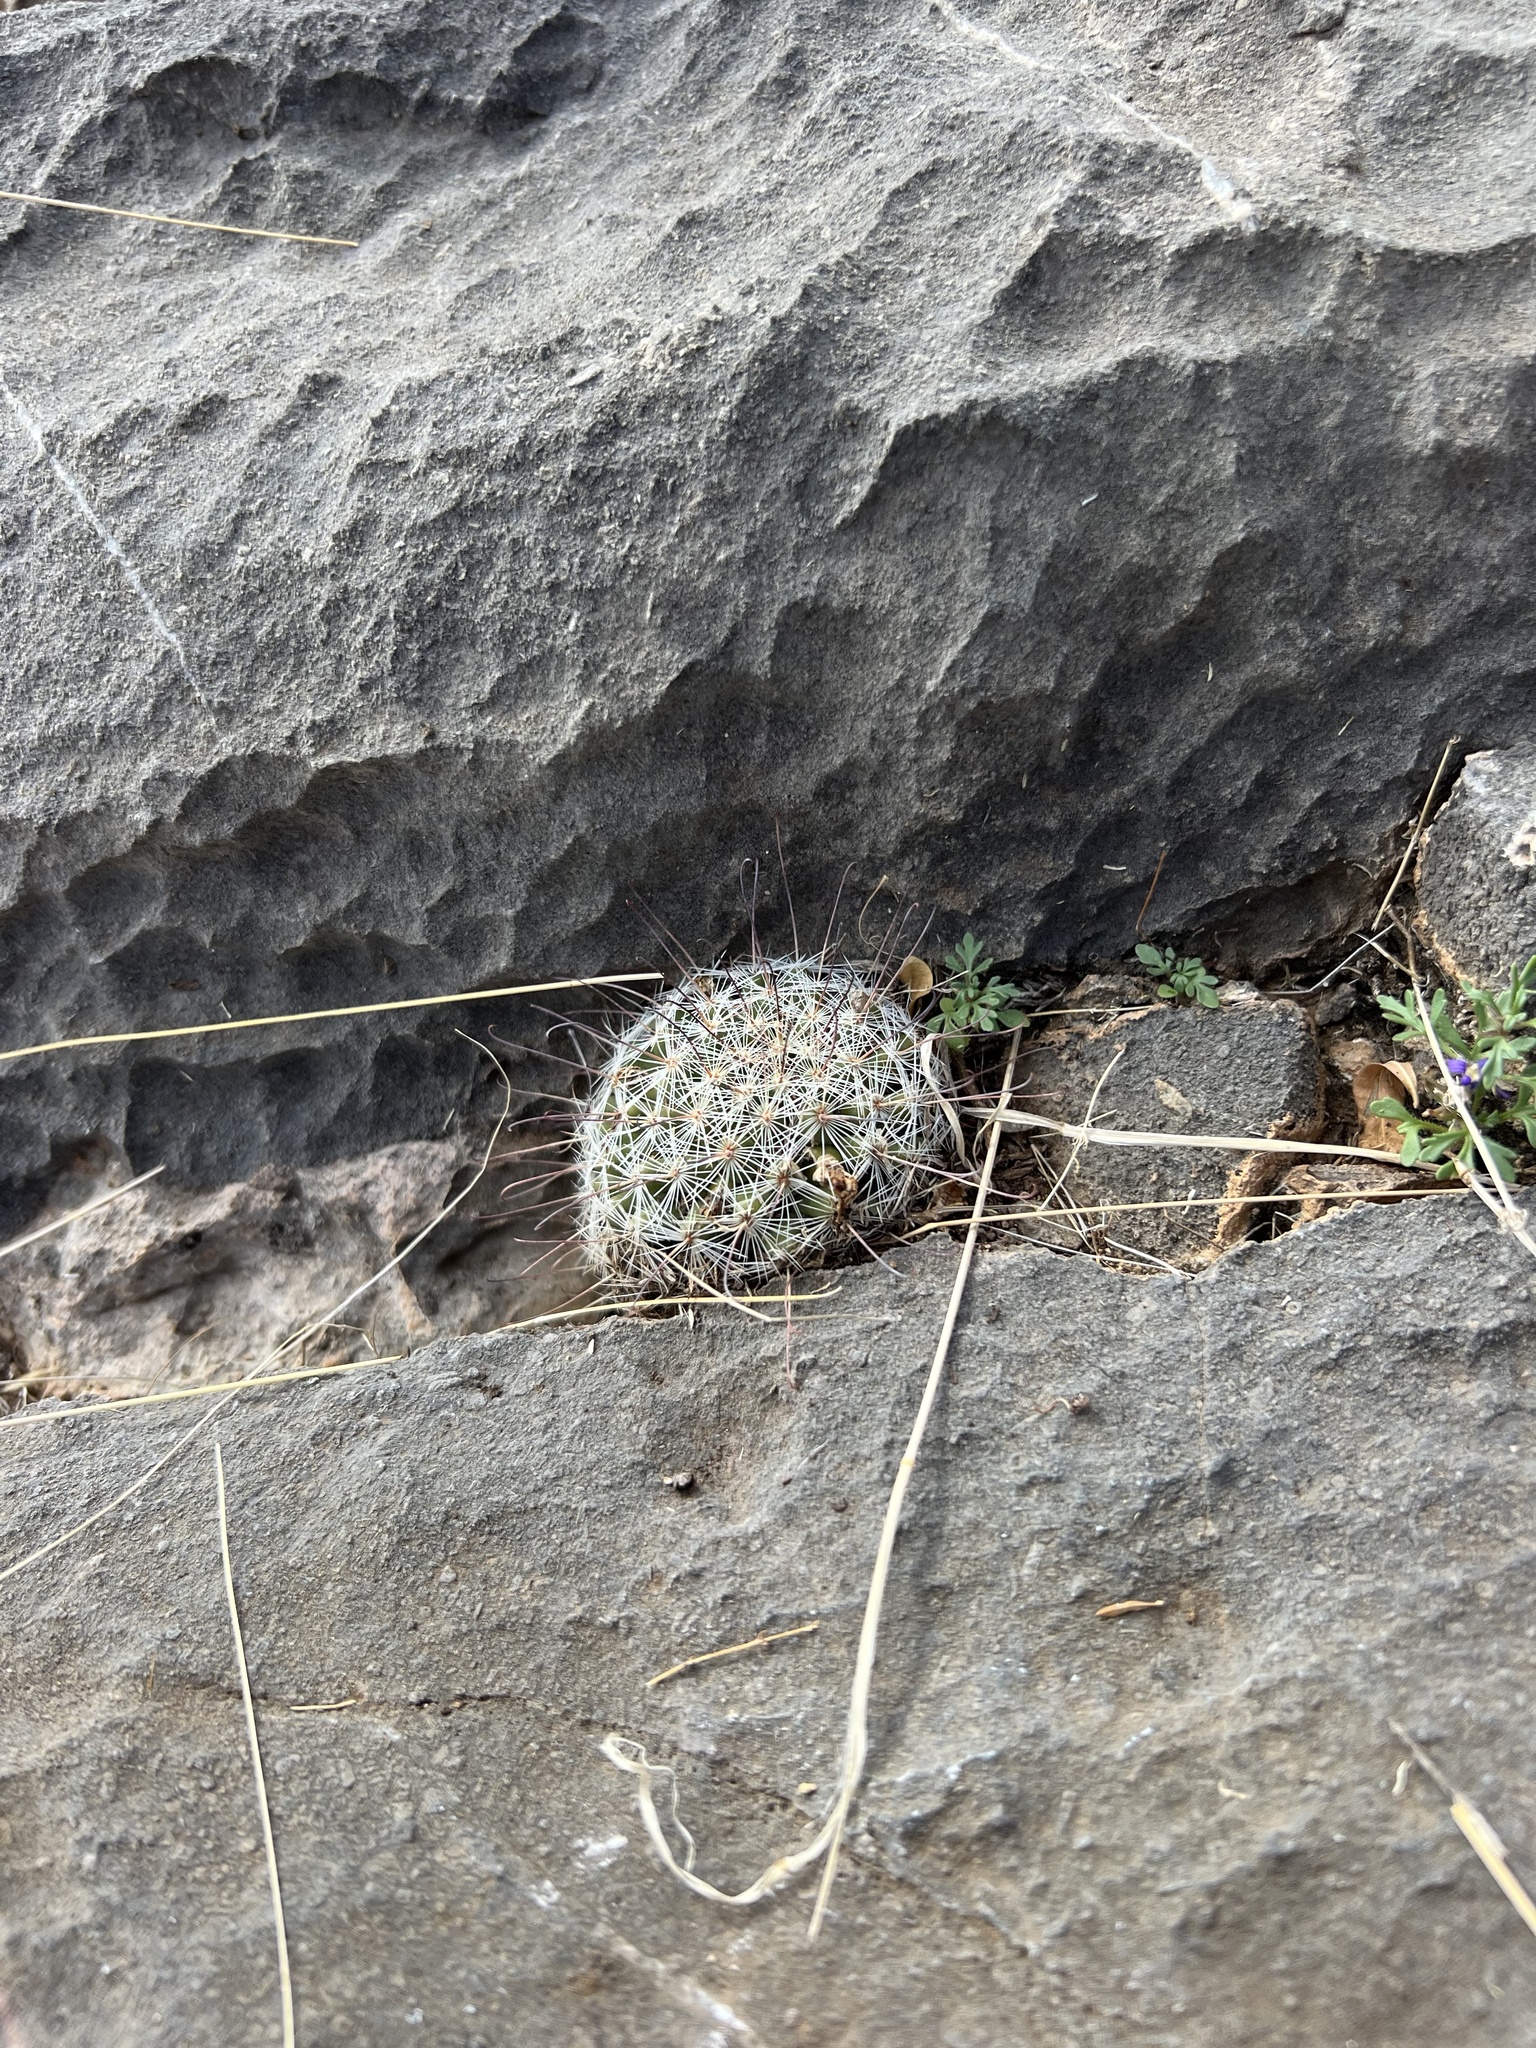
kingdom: Plantae
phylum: Tracheophyta
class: Magnoliopsida
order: Caryophyllales
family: Cactaceae
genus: Cochemiea
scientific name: Cochemiea grahamii
